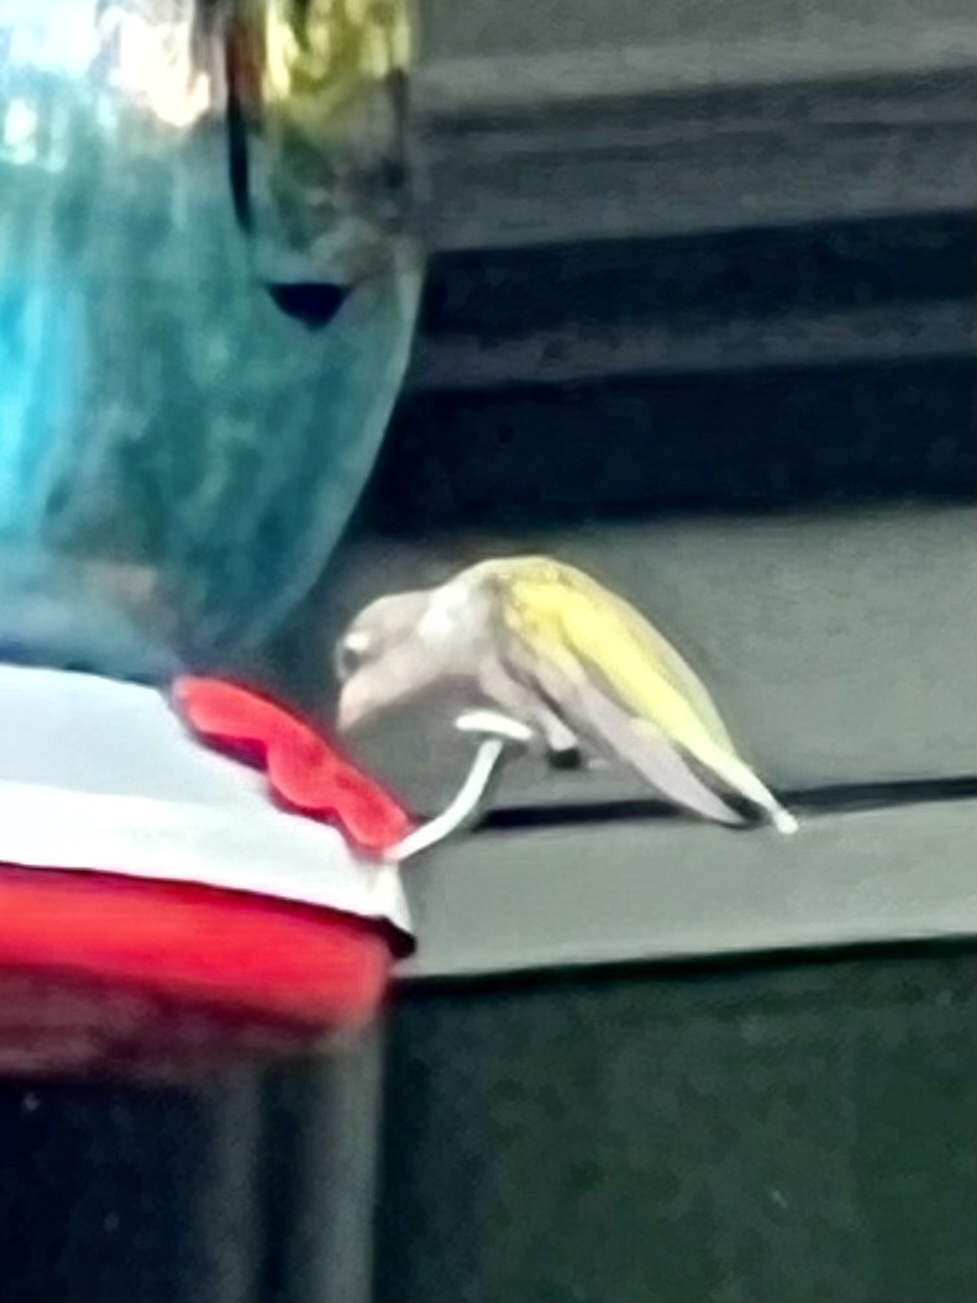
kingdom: Animalia
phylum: Chordata
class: Aves
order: Apodiformes
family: Trochilidae
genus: Archilochus
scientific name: Archilochus colubris
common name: Ruby-throated hummingbird
